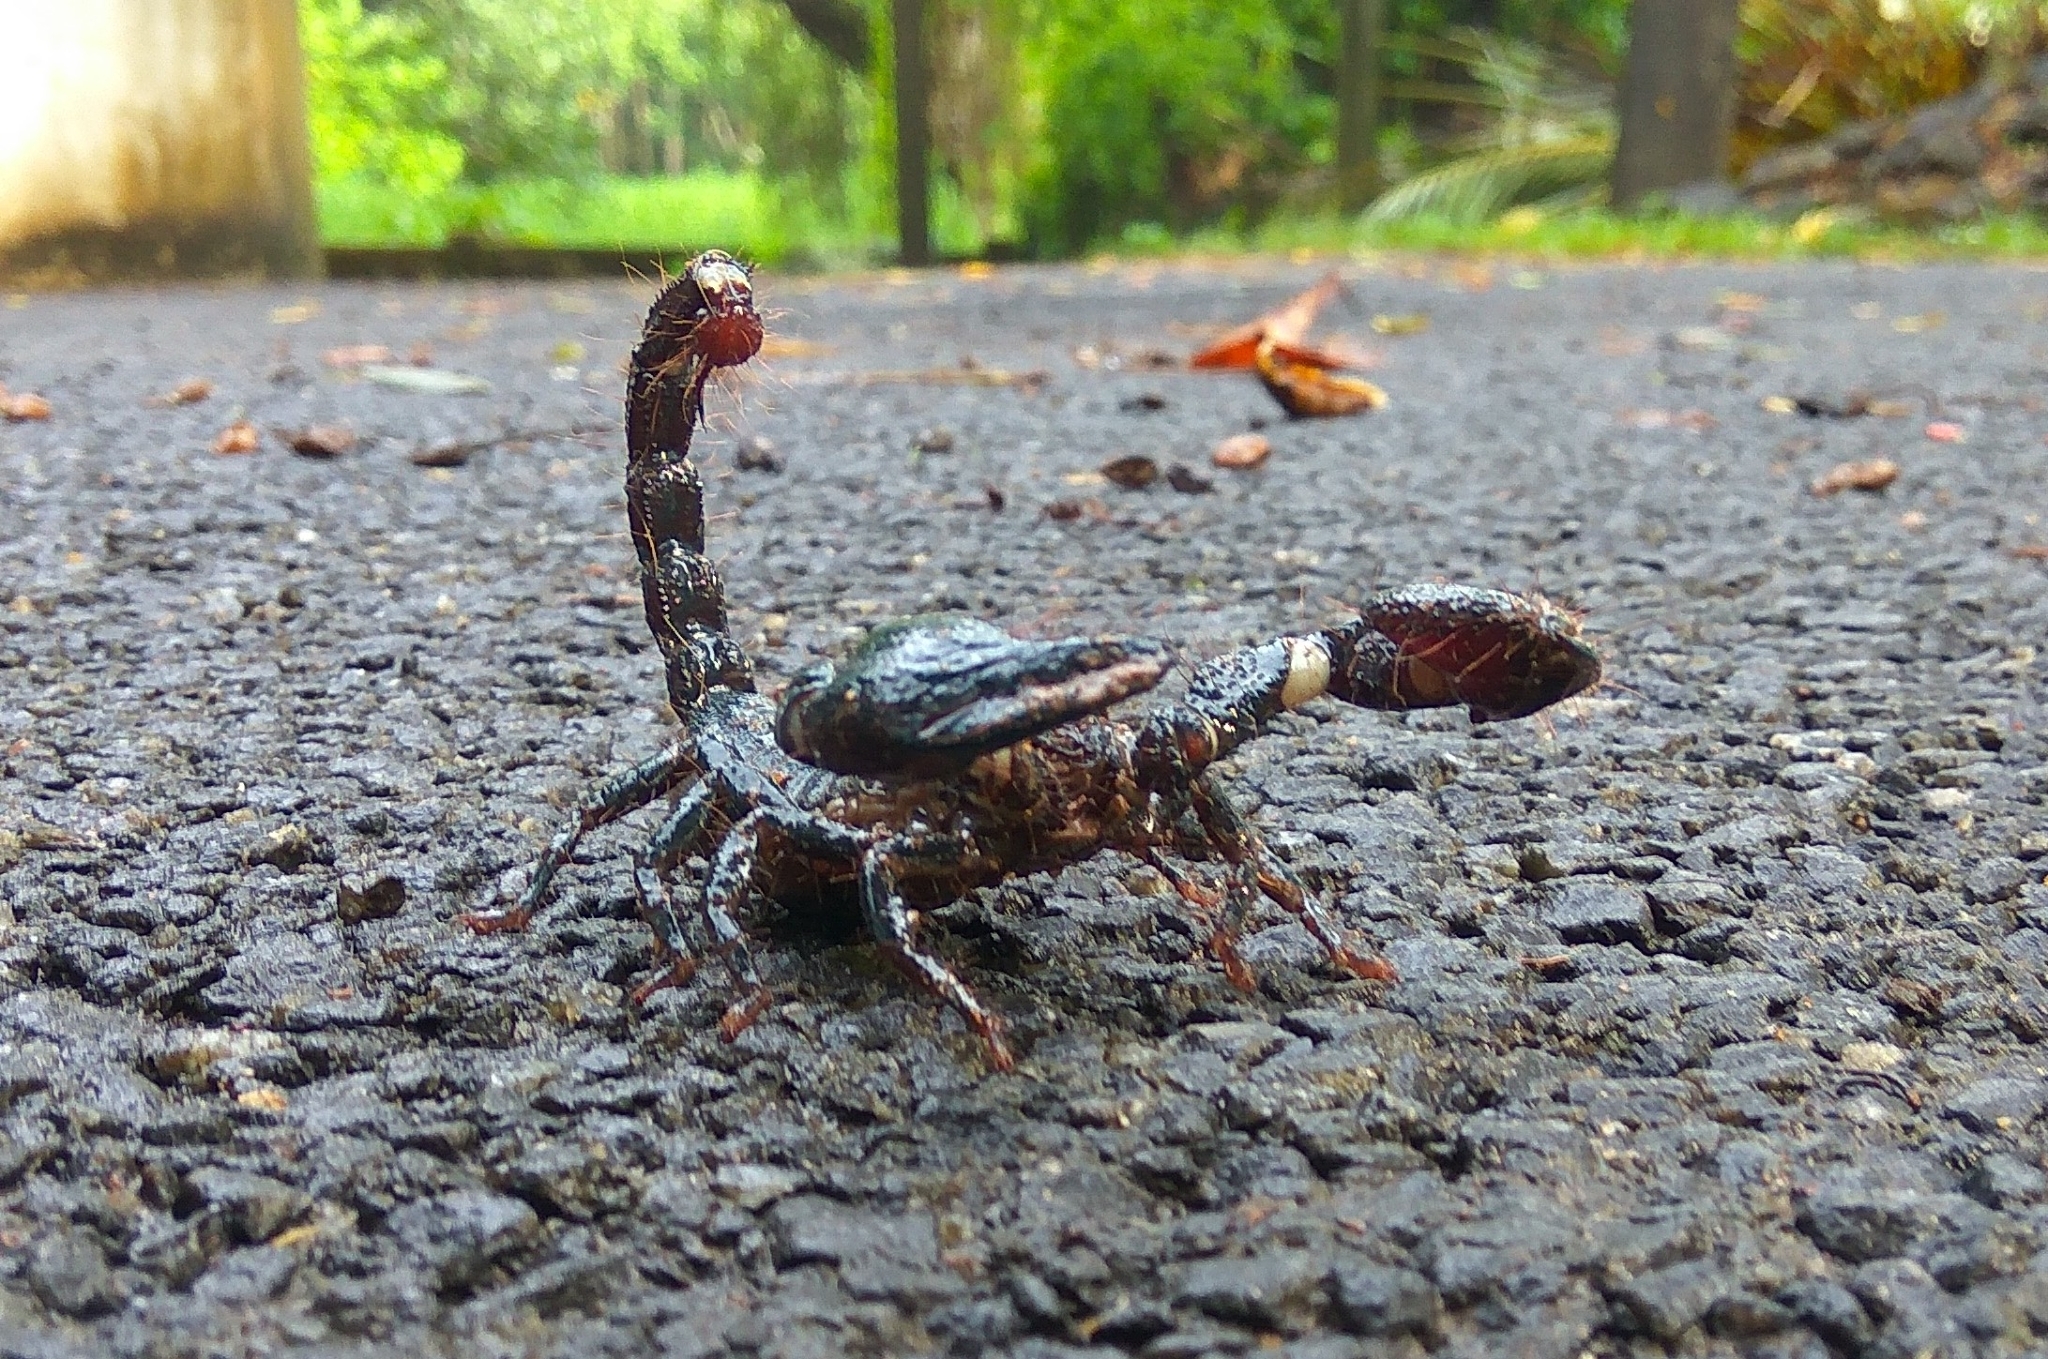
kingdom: Animalia
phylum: Arthropoda
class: Arachnida
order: Scorpiones
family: Scorpionidae
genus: Sahyadrimetrus
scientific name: Sahyadrimetrus scaber
